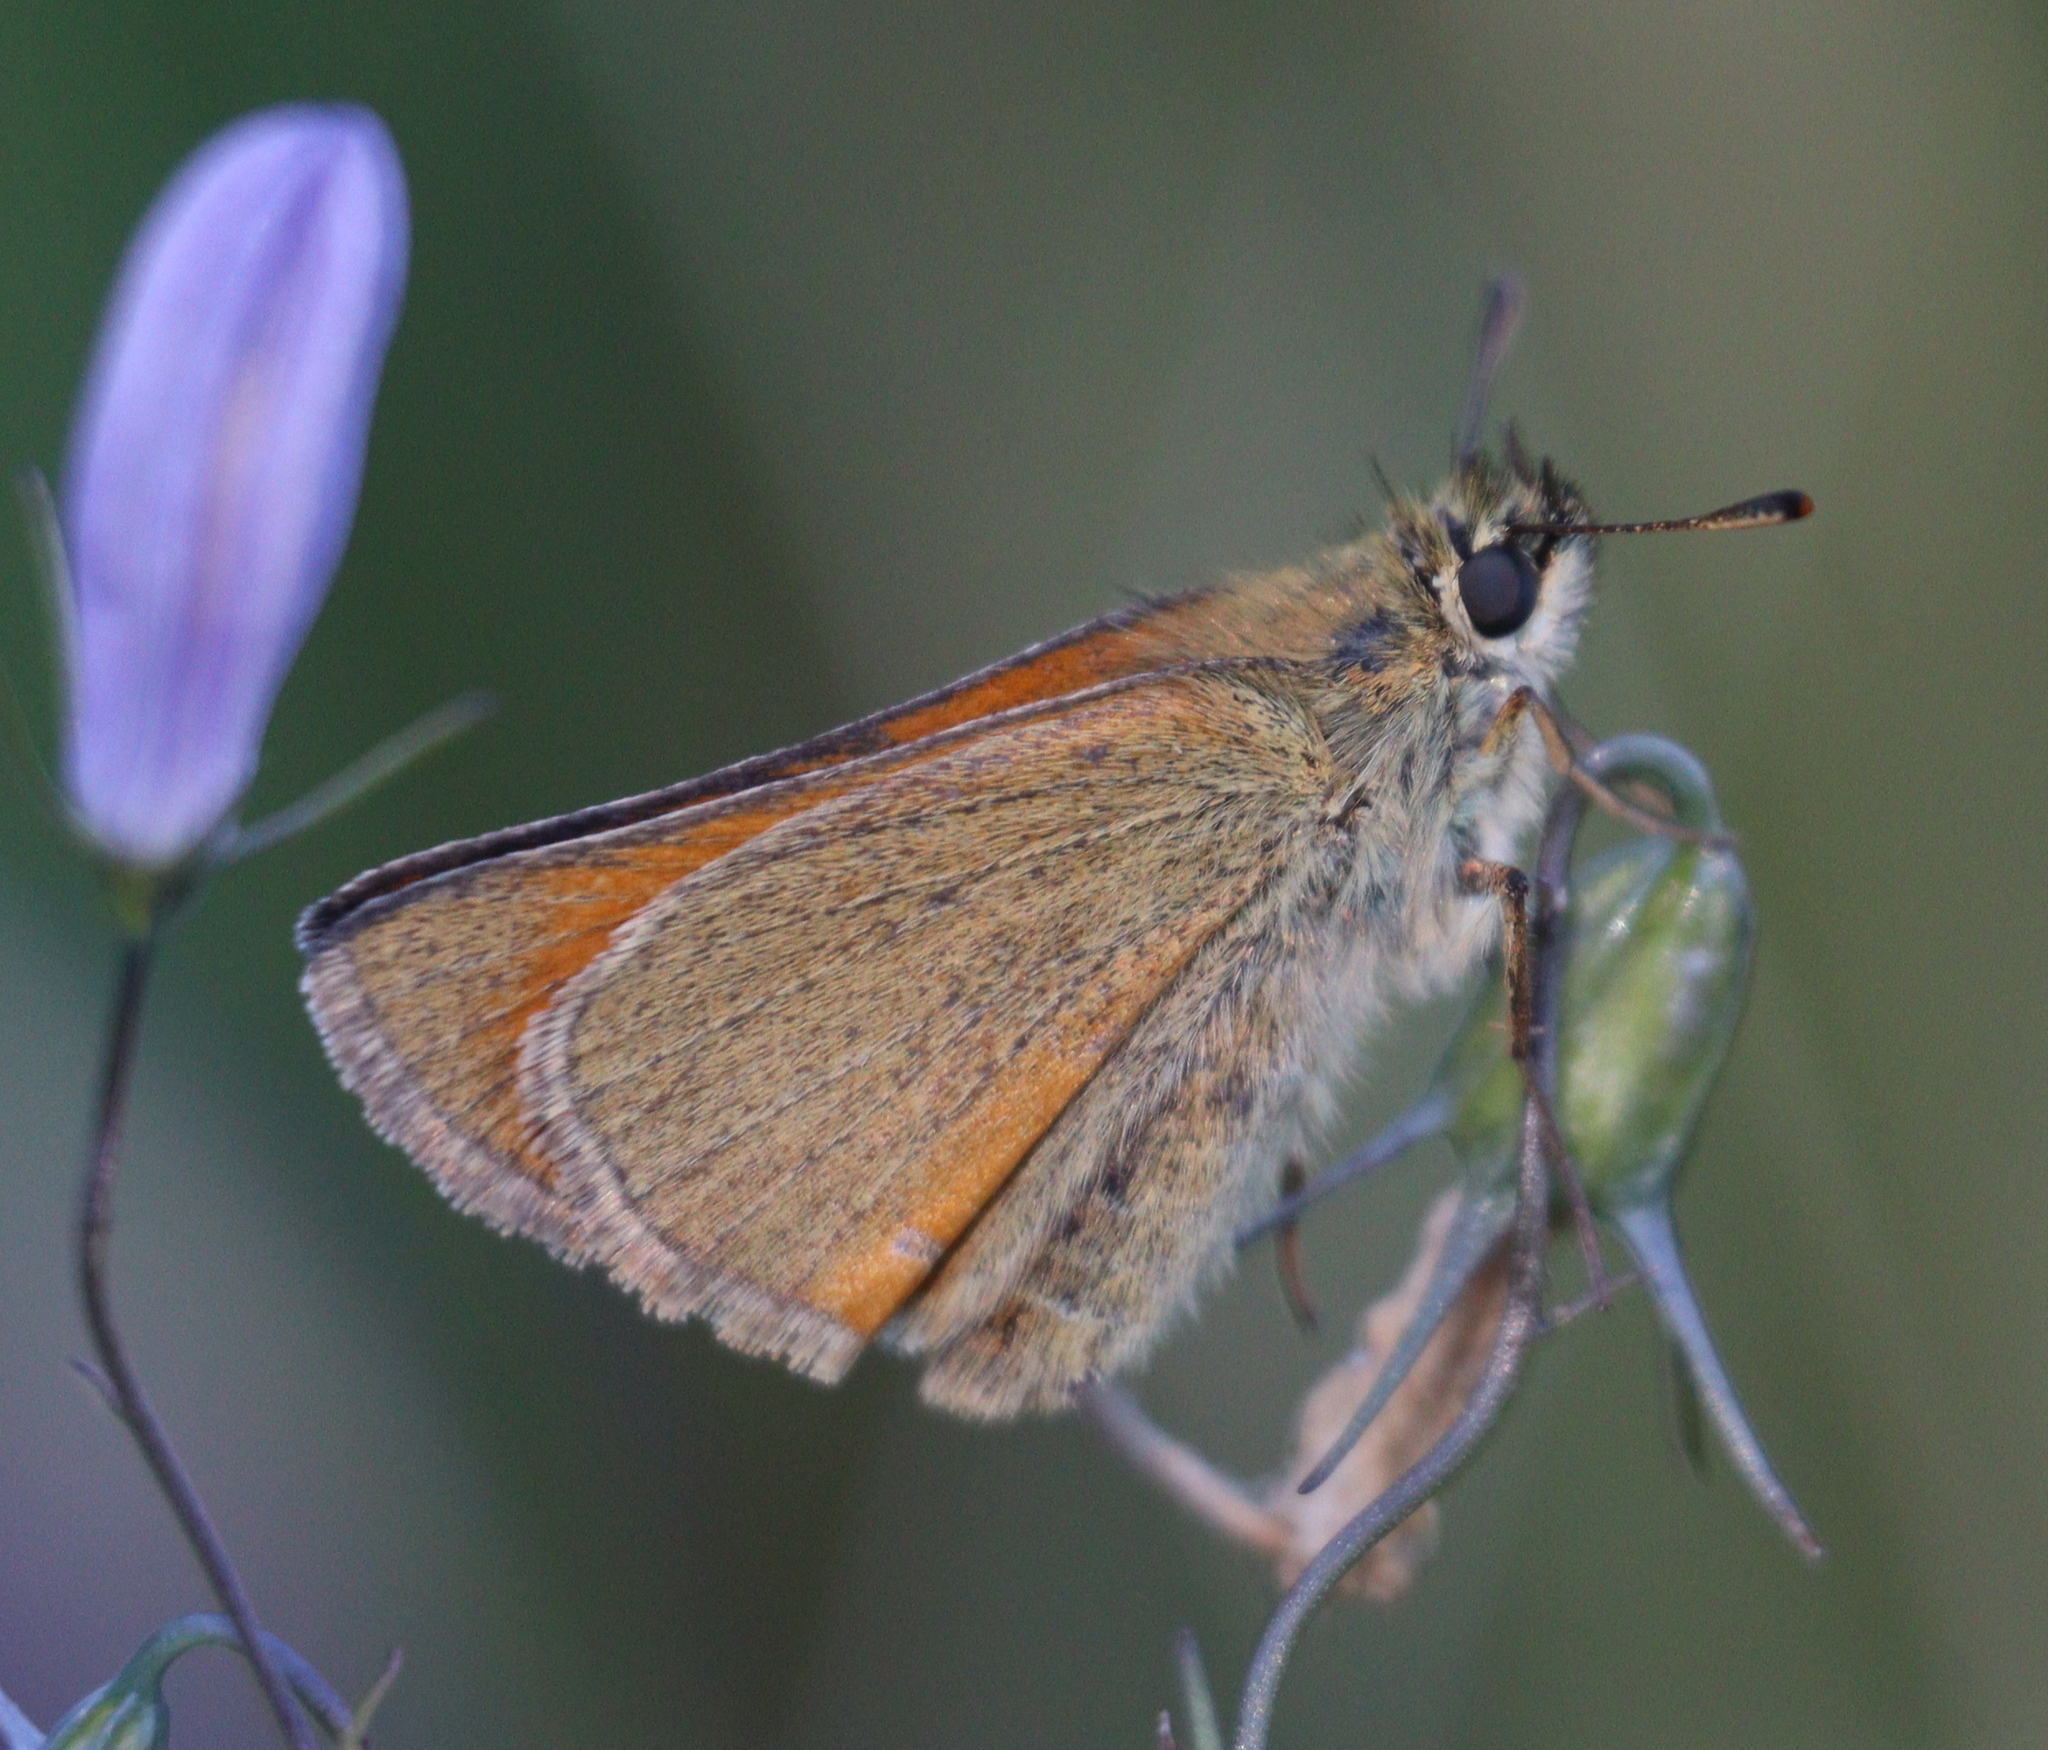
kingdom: Animalia
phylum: Arthropoda
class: Insecta
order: Lepidoptera
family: Hesperiidae
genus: Thymelicus
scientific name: Thymelicus sylvestris
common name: Small skipper
